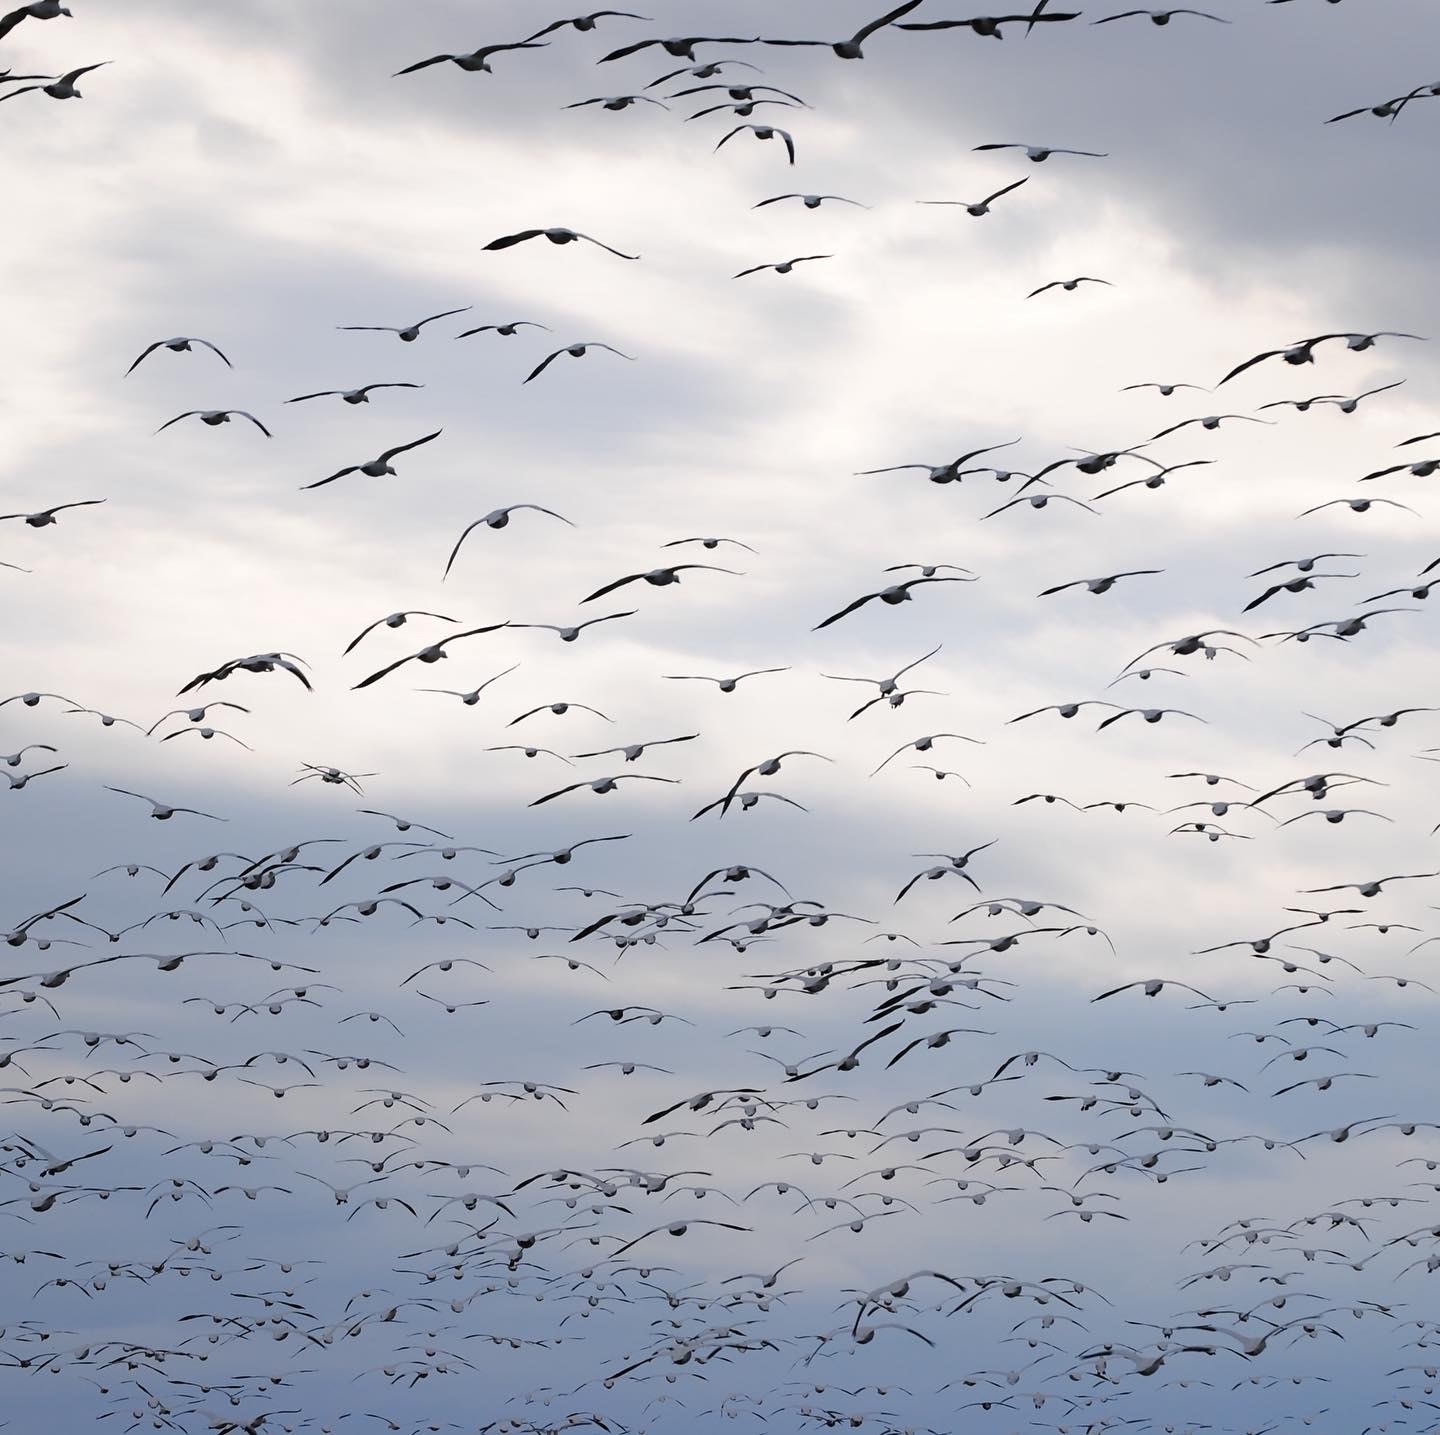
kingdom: Animalia
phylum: Chordata
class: Aves
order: Anseriformes
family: Anatidae
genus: Anser
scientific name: Anser caerulescens
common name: Snow goose
